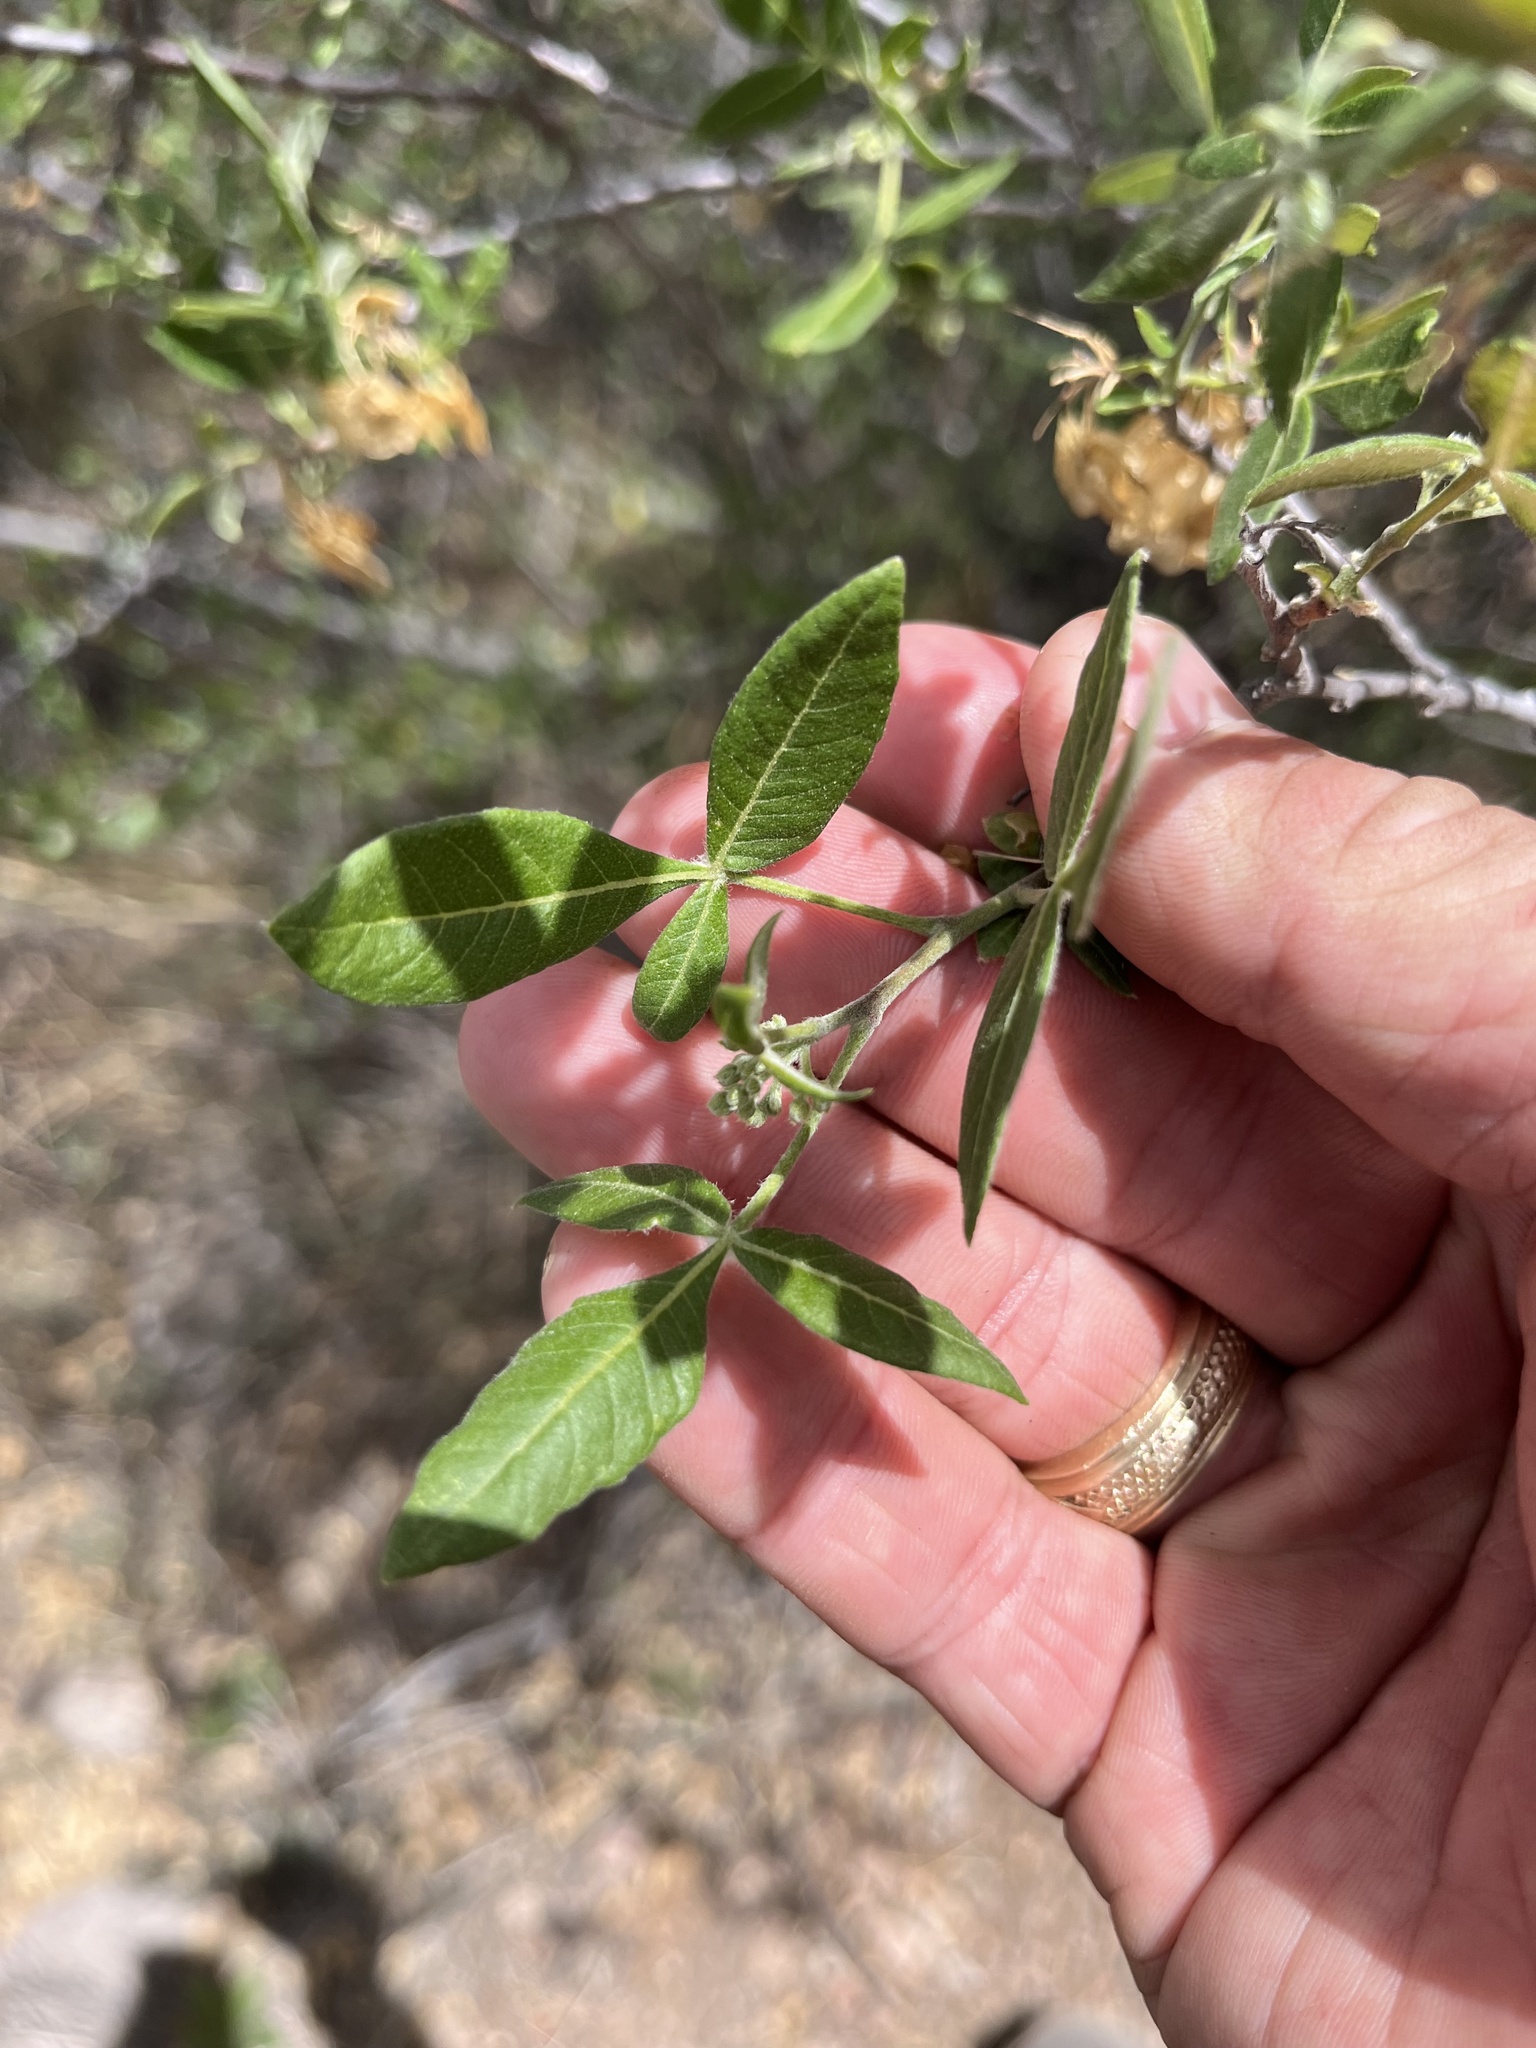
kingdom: Plantae
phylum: Tracheophyta
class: Magnoliopsida
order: Sapindales
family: Rutaceae
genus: Ptelea
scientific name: Ptelea trifoliata
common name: Common hop-tree
